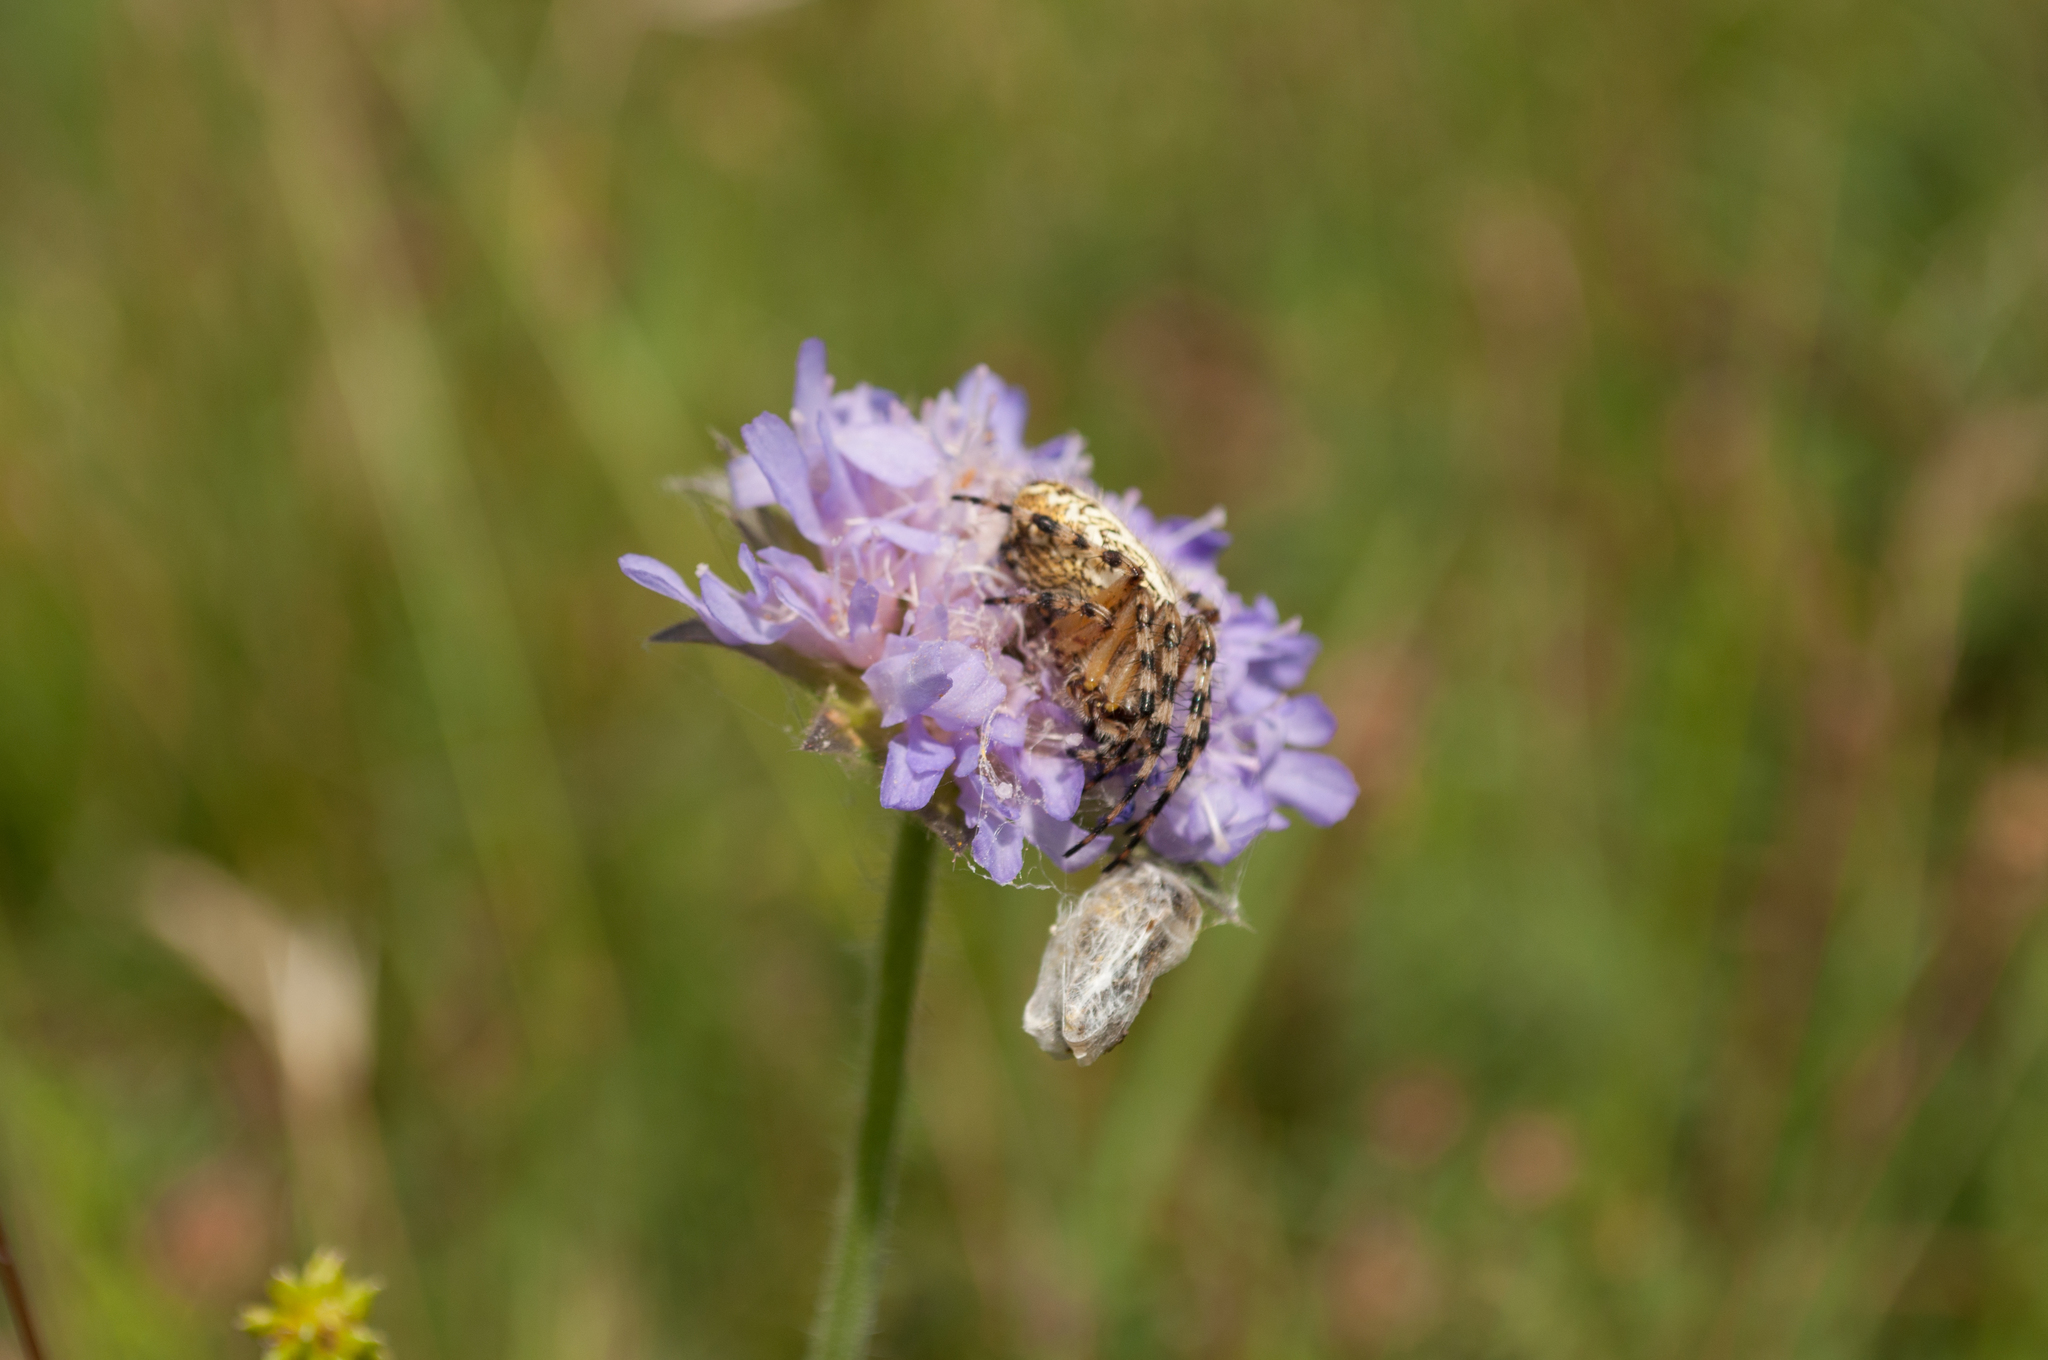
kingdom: Animalia
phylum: Arthropoda
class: Arachnida
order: Araneae
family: Araneidae
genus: Aculepeira
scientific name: Aculepeira ceropegia
